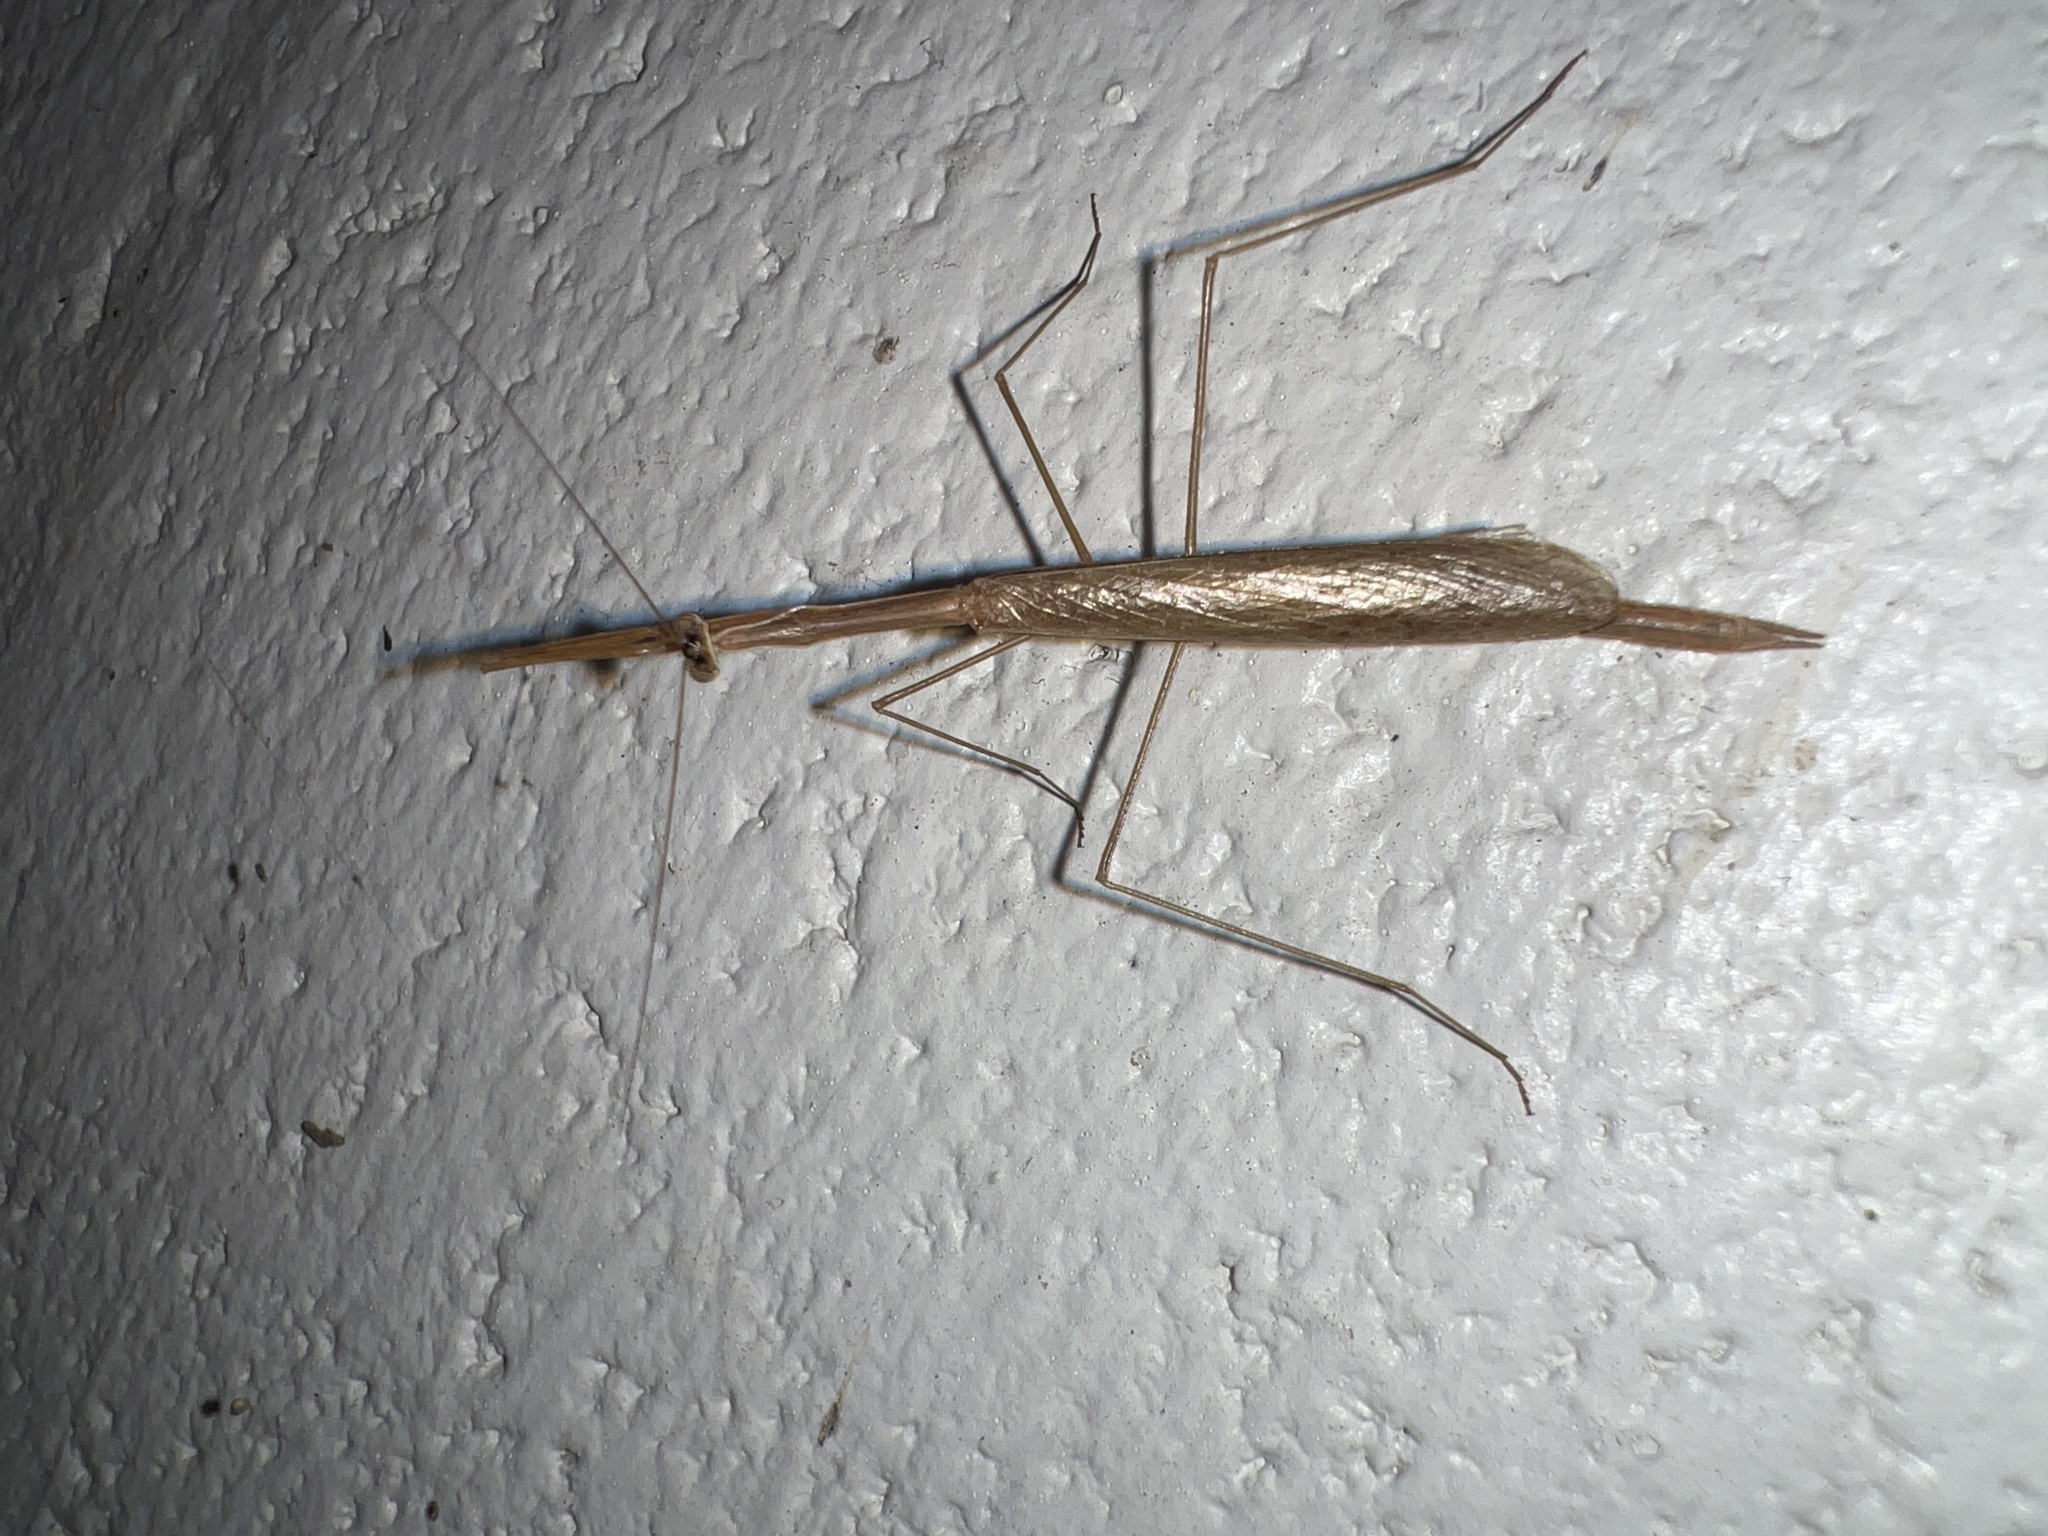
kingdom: Animalia
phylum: Arthropoda
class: Insecta
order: Mantodea
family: Thespidae
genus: Bistanta
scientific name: Bistanta campestris
